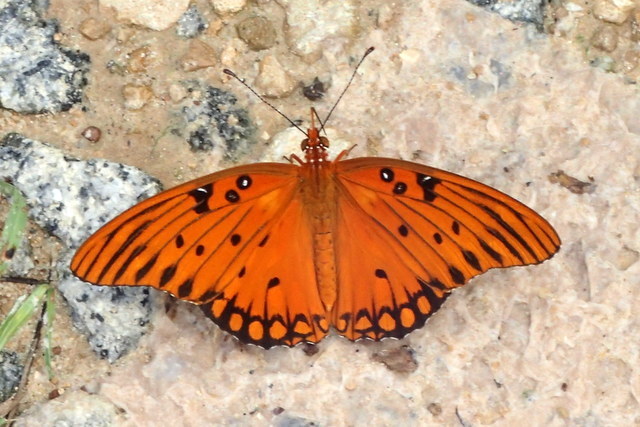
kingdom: Animalia
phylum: Arthropoda
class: Insecta
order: Lepidoptera
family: Nymphalidae
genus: Dione
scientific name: Dione vanillae
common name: Gulf fritillary
